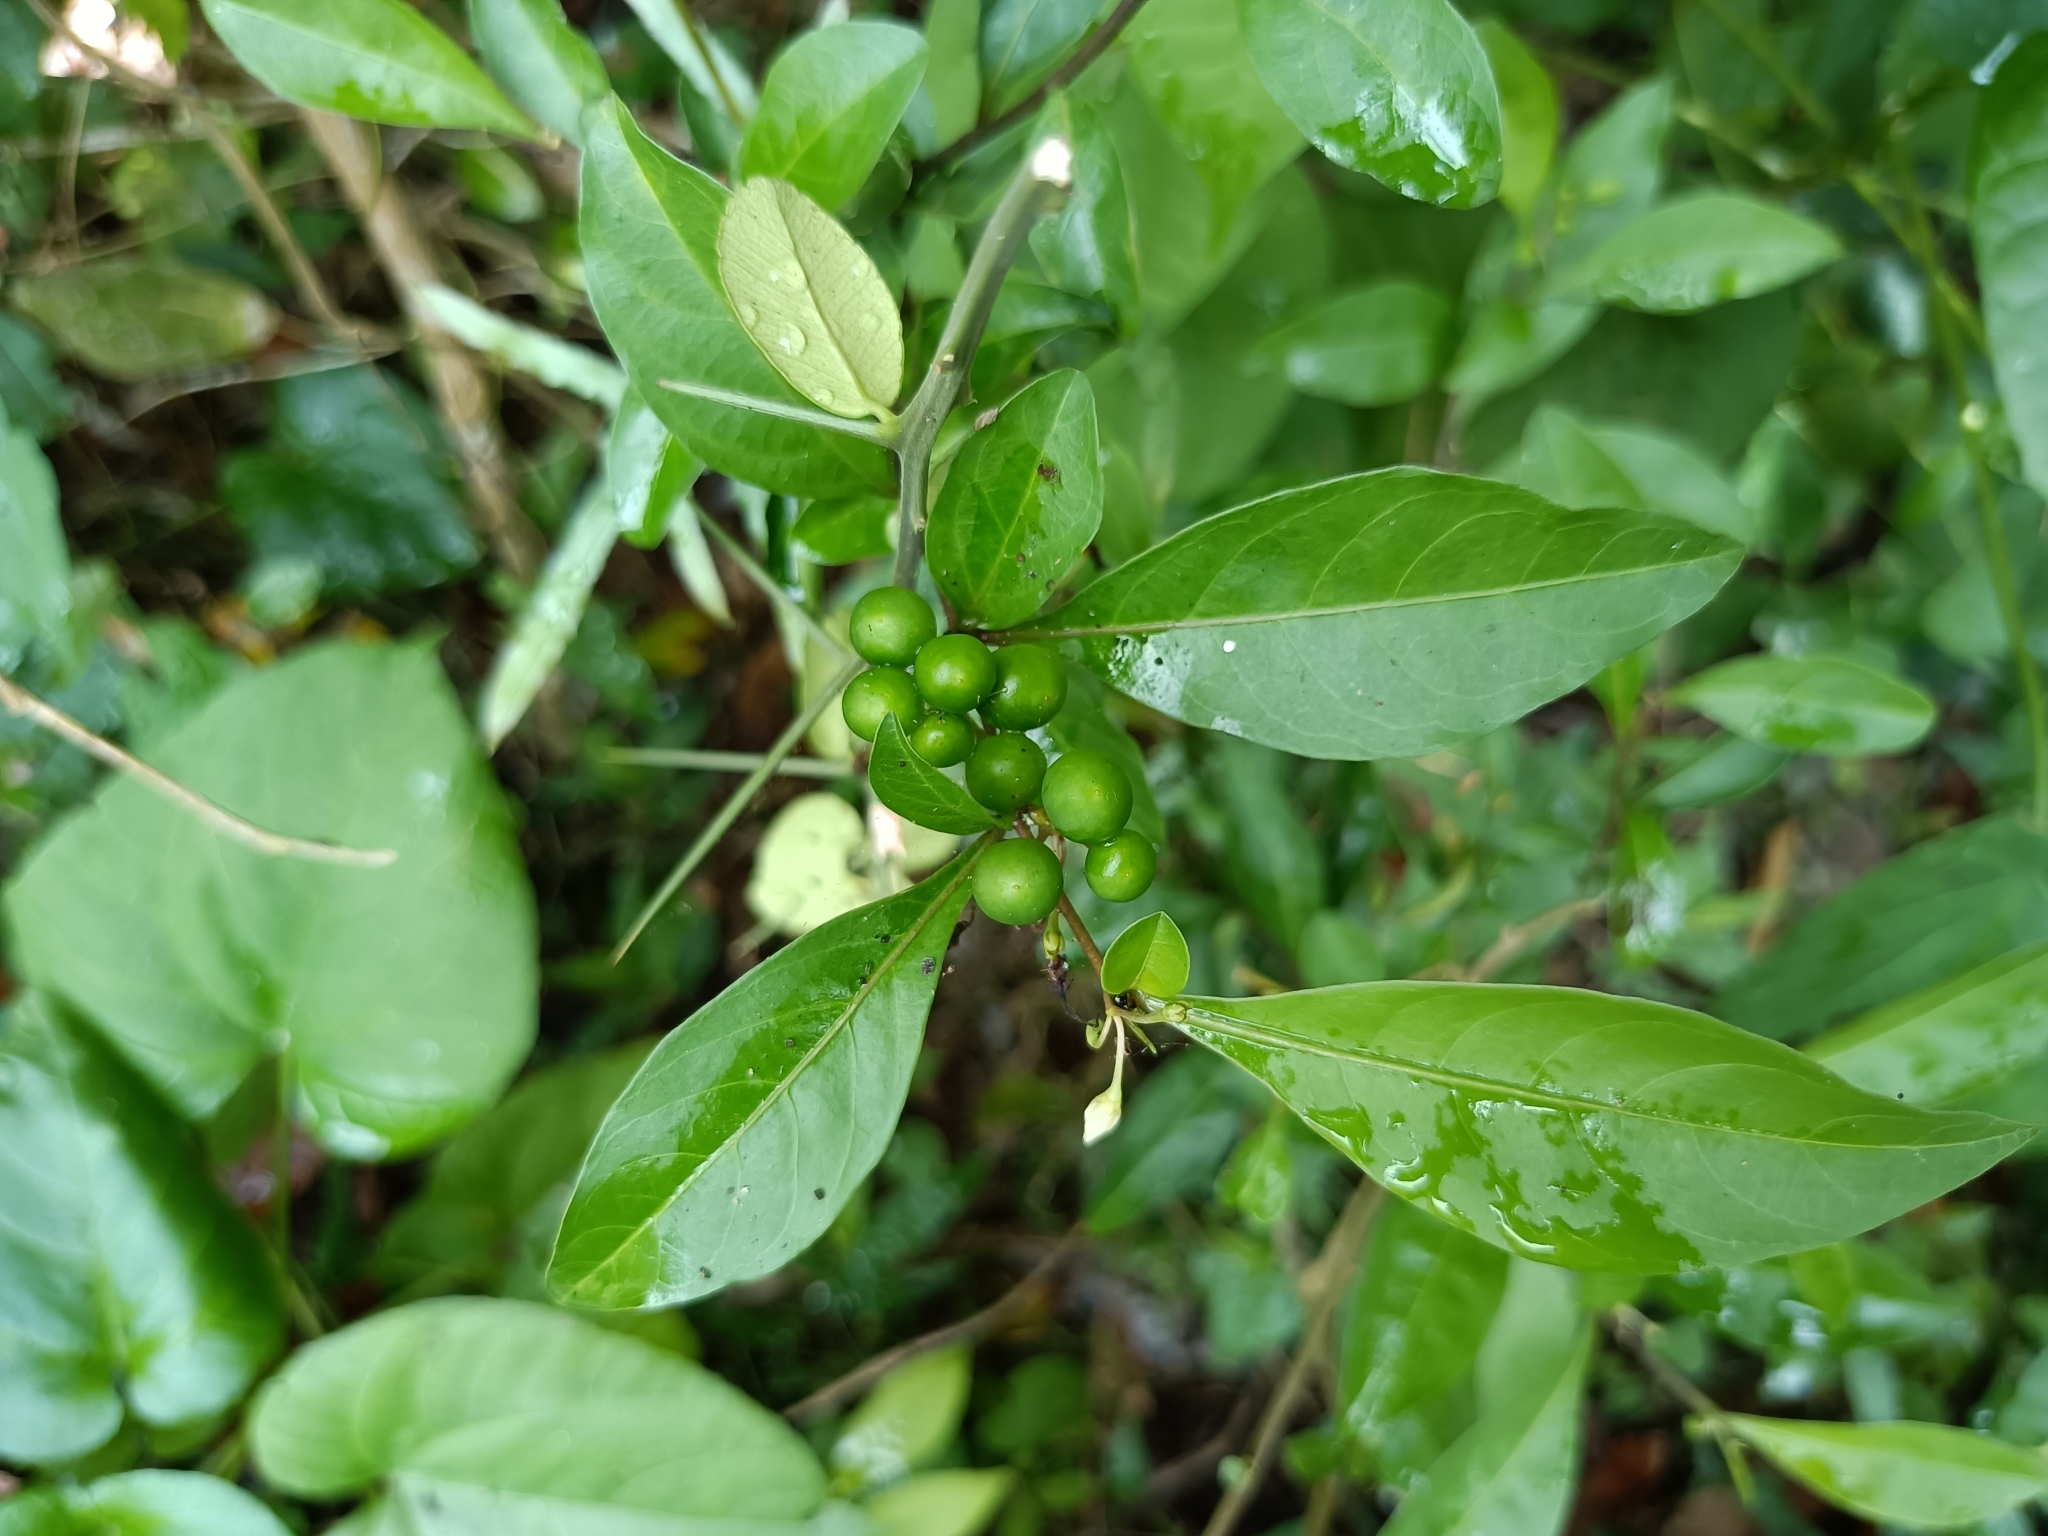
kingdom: Plantae
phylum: Tracheophyta
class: Magnoliopsida
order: Solanales
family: Solanaceae
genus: Solanum
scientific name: Solanum diphyllum
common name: Twoleaf nightshade
